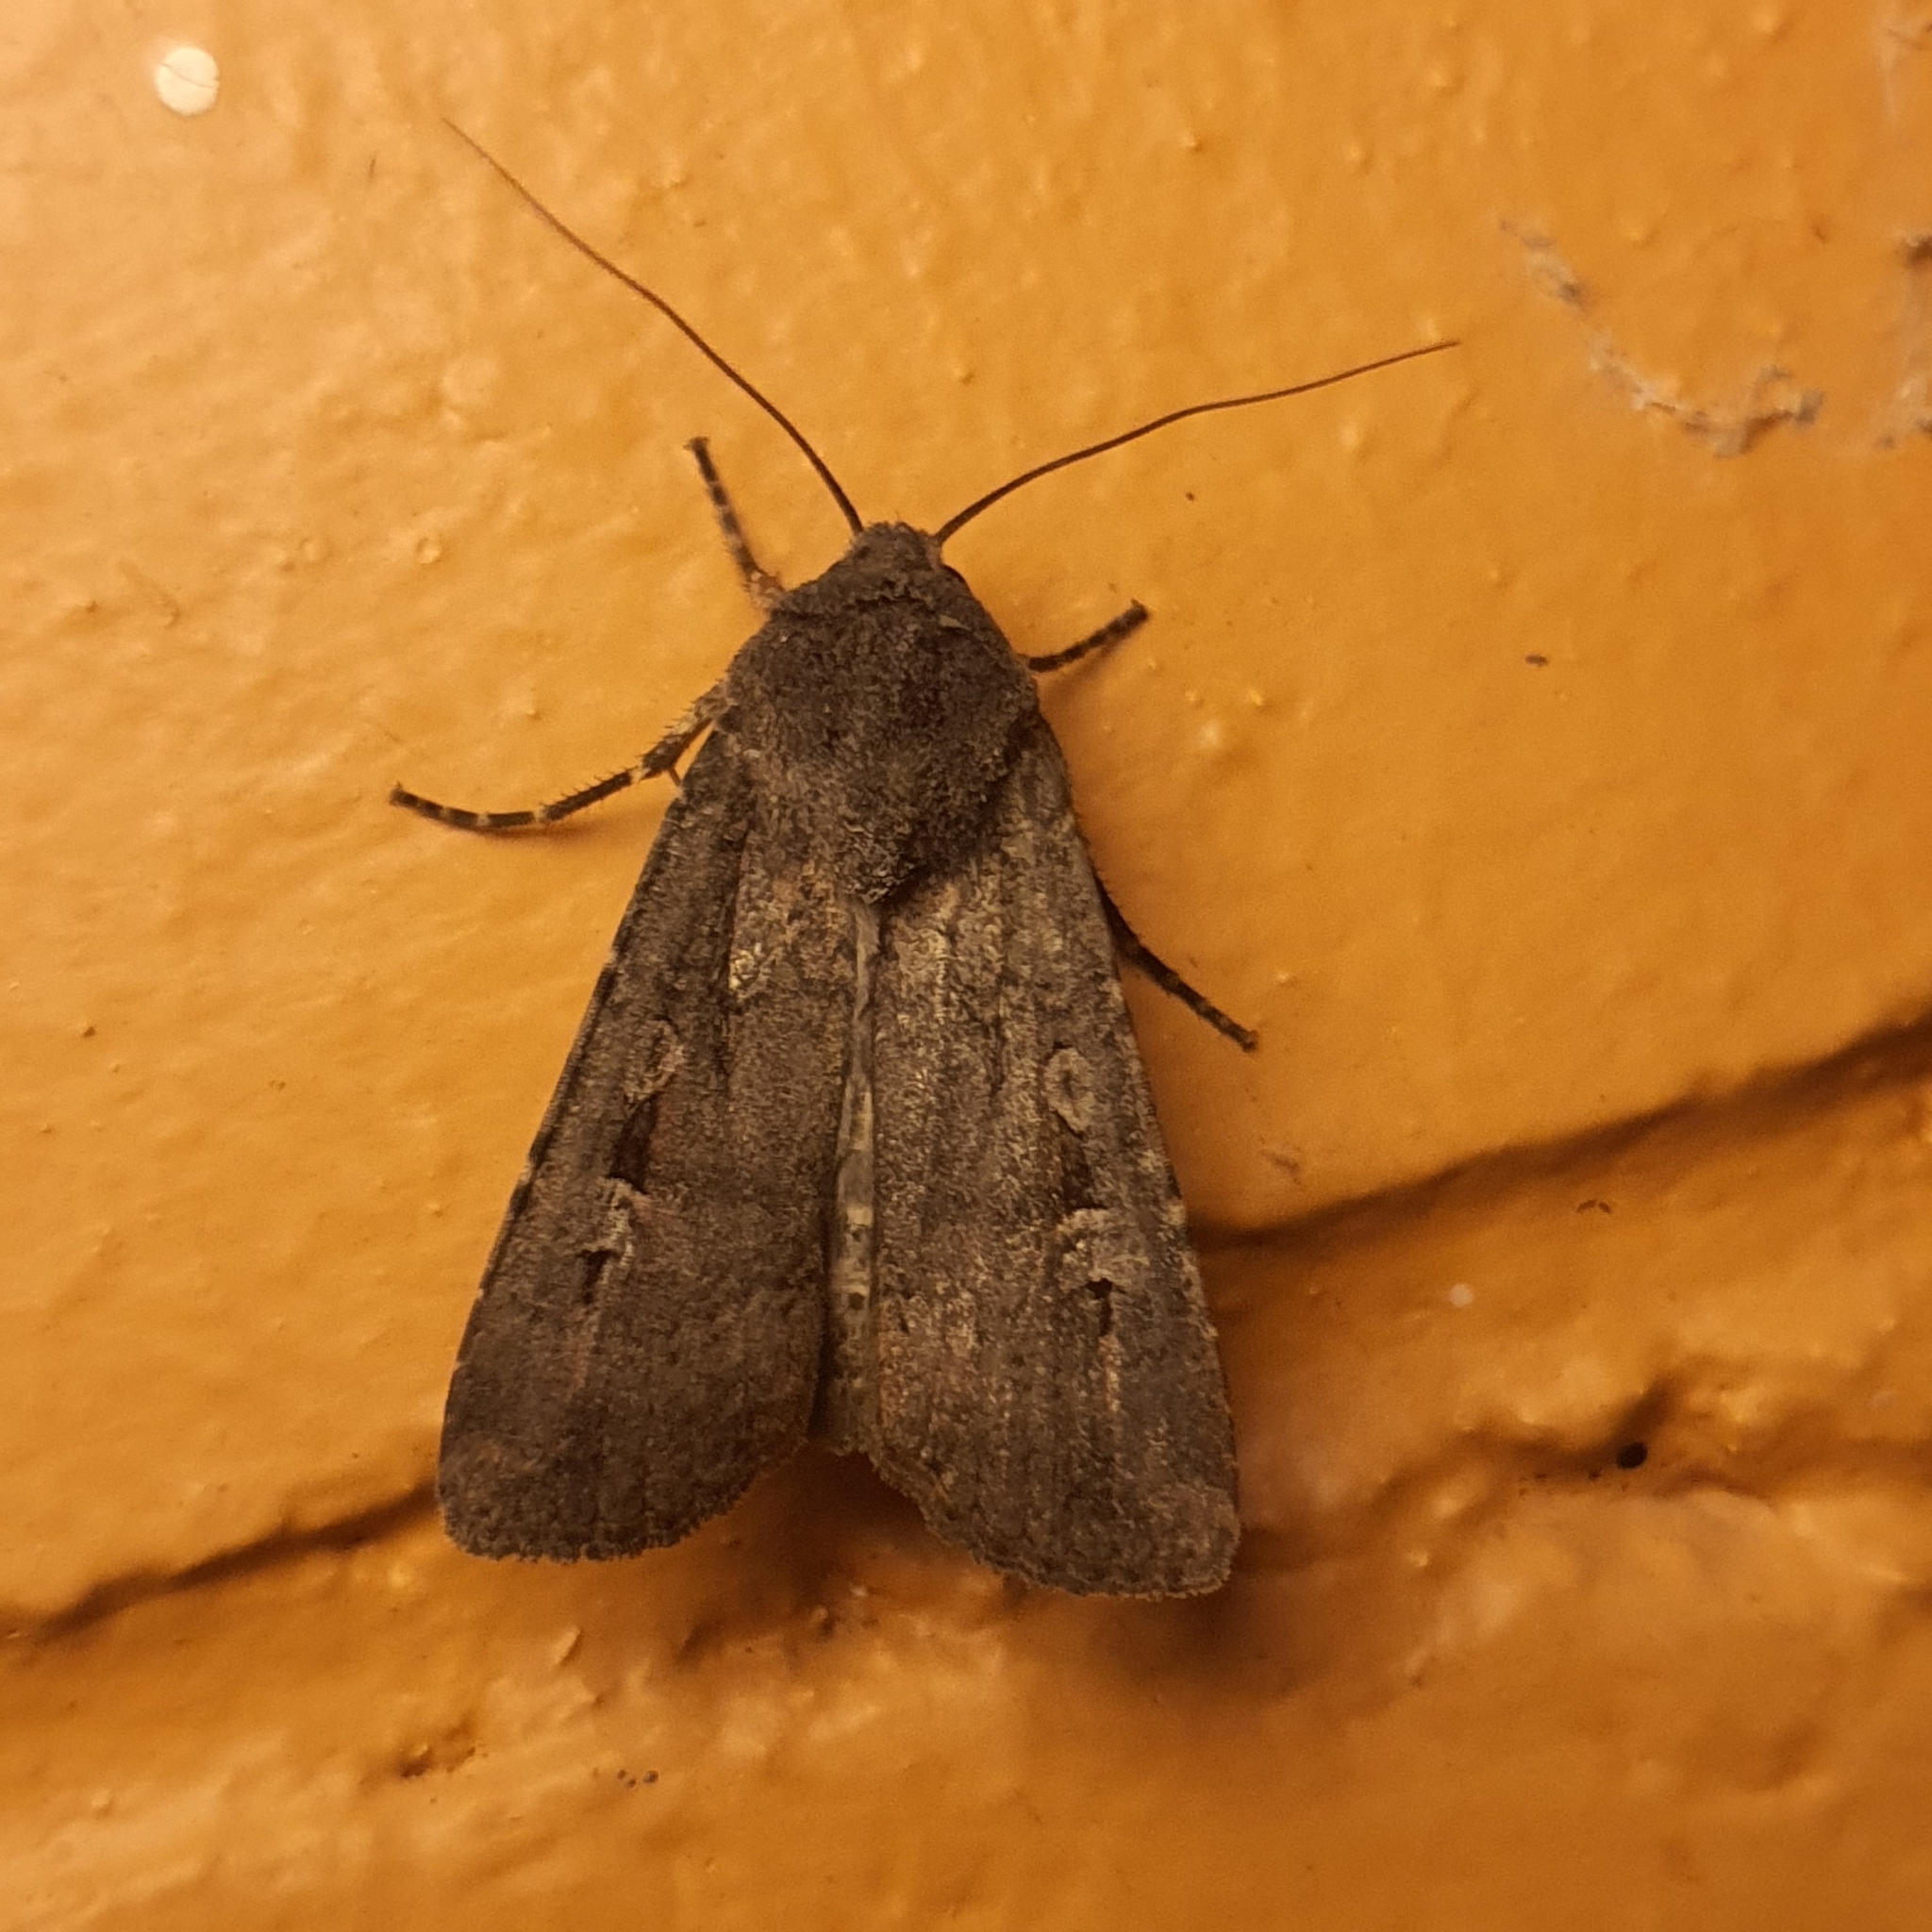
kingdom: Animalia
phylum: Arthropoda
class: Insecta
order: Lepidoptera
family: Noctuidae
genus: Agrotis
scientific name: Agrotis infusa
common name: Bogong moth
